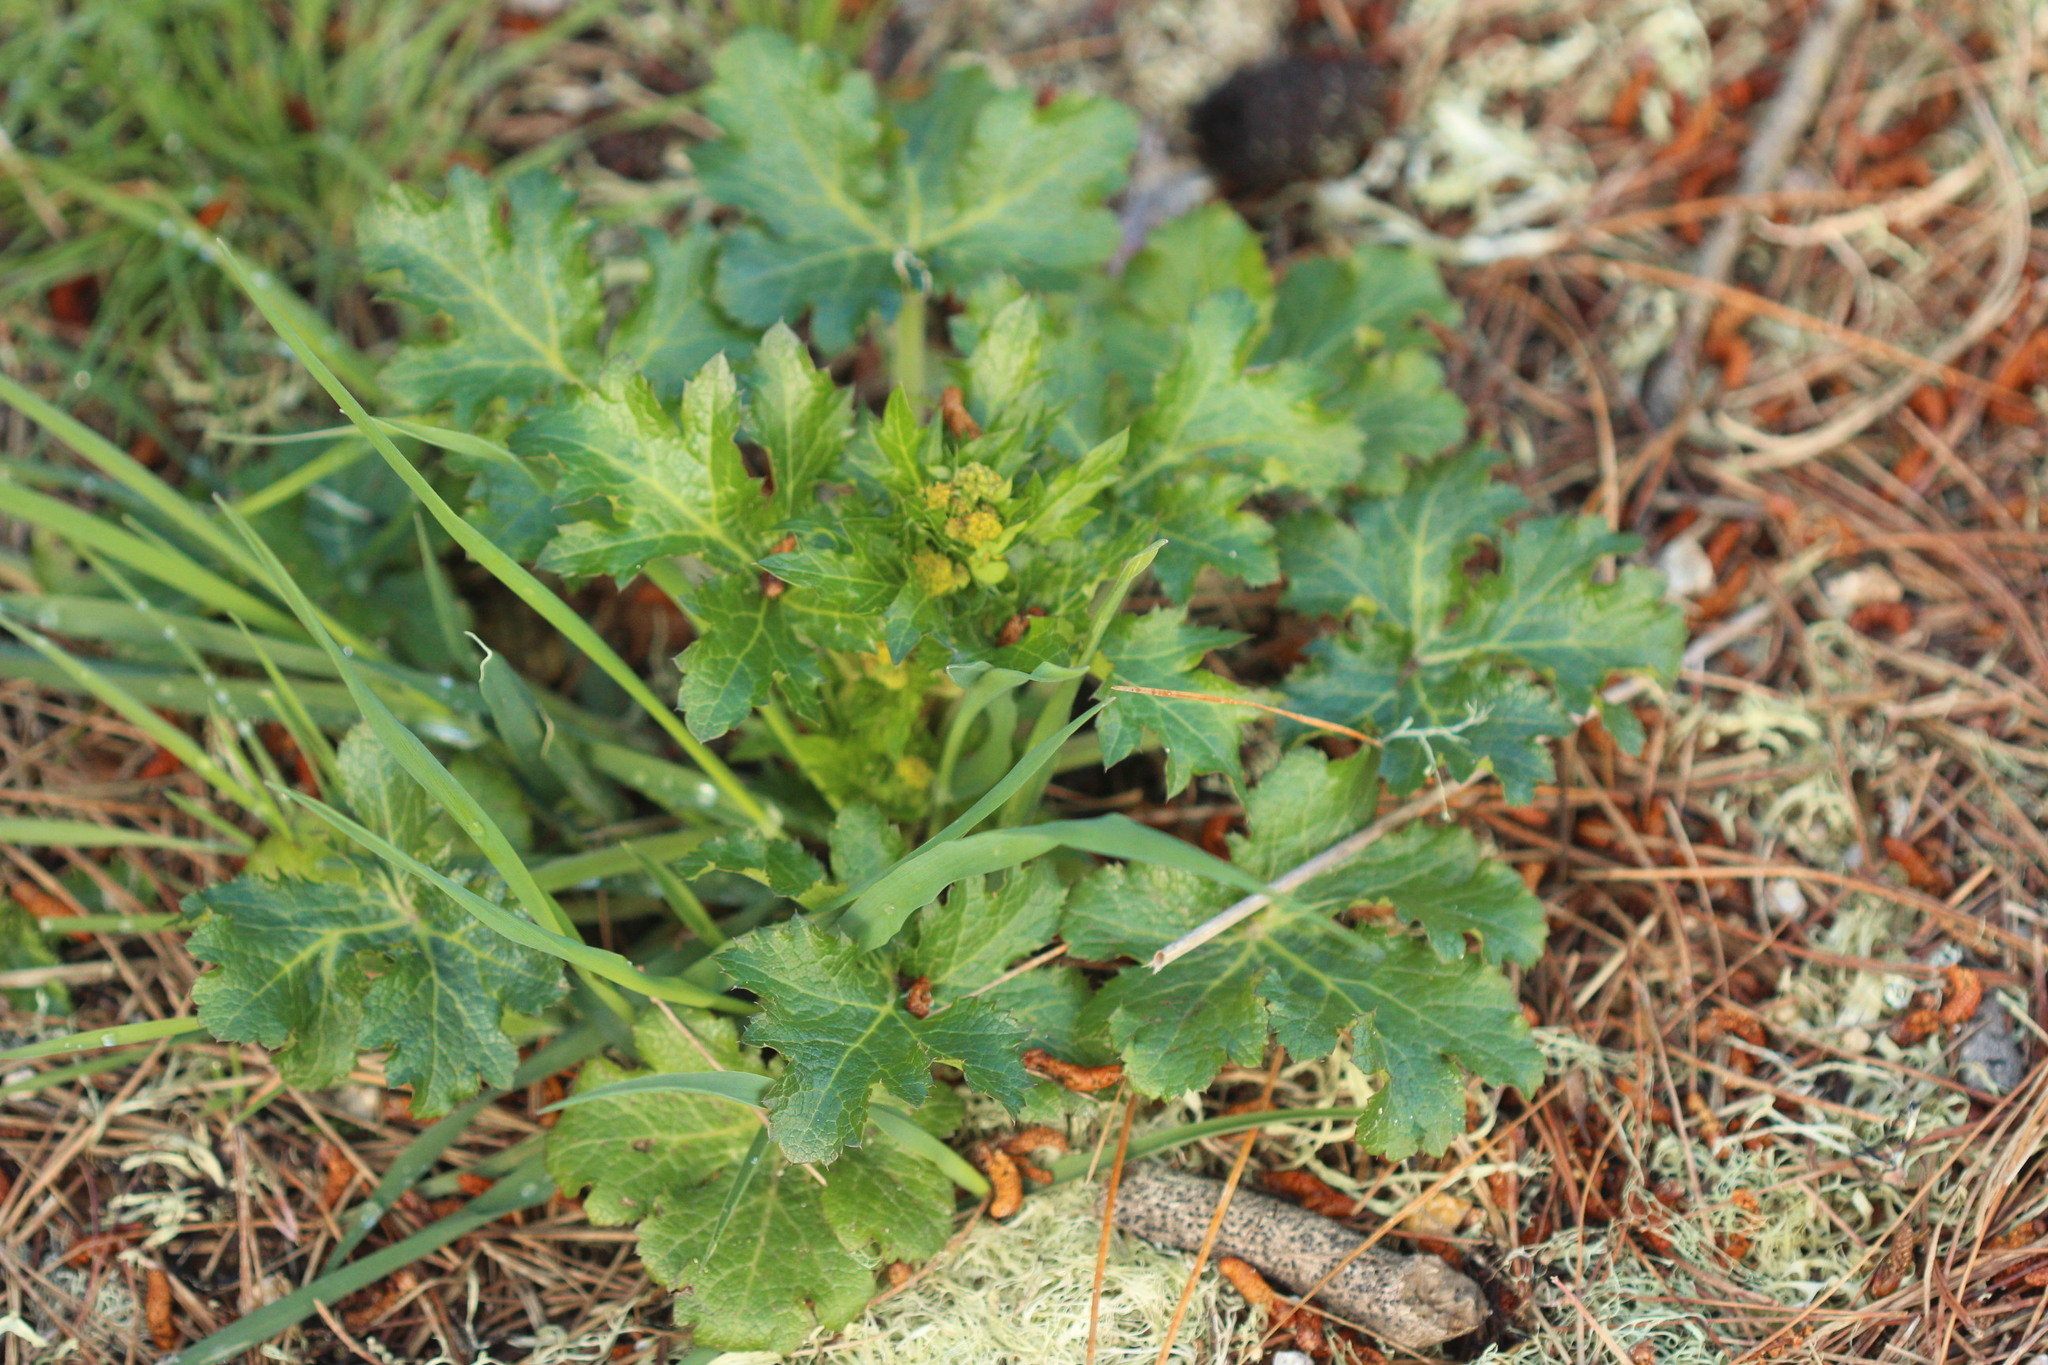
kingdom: Plantae
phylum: Tracheophyta
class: Magnoliopsida
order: Apiales
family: Apiaceae
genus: Sanicula
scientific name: Sanicula crassicaulis
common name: Western snakeroot
